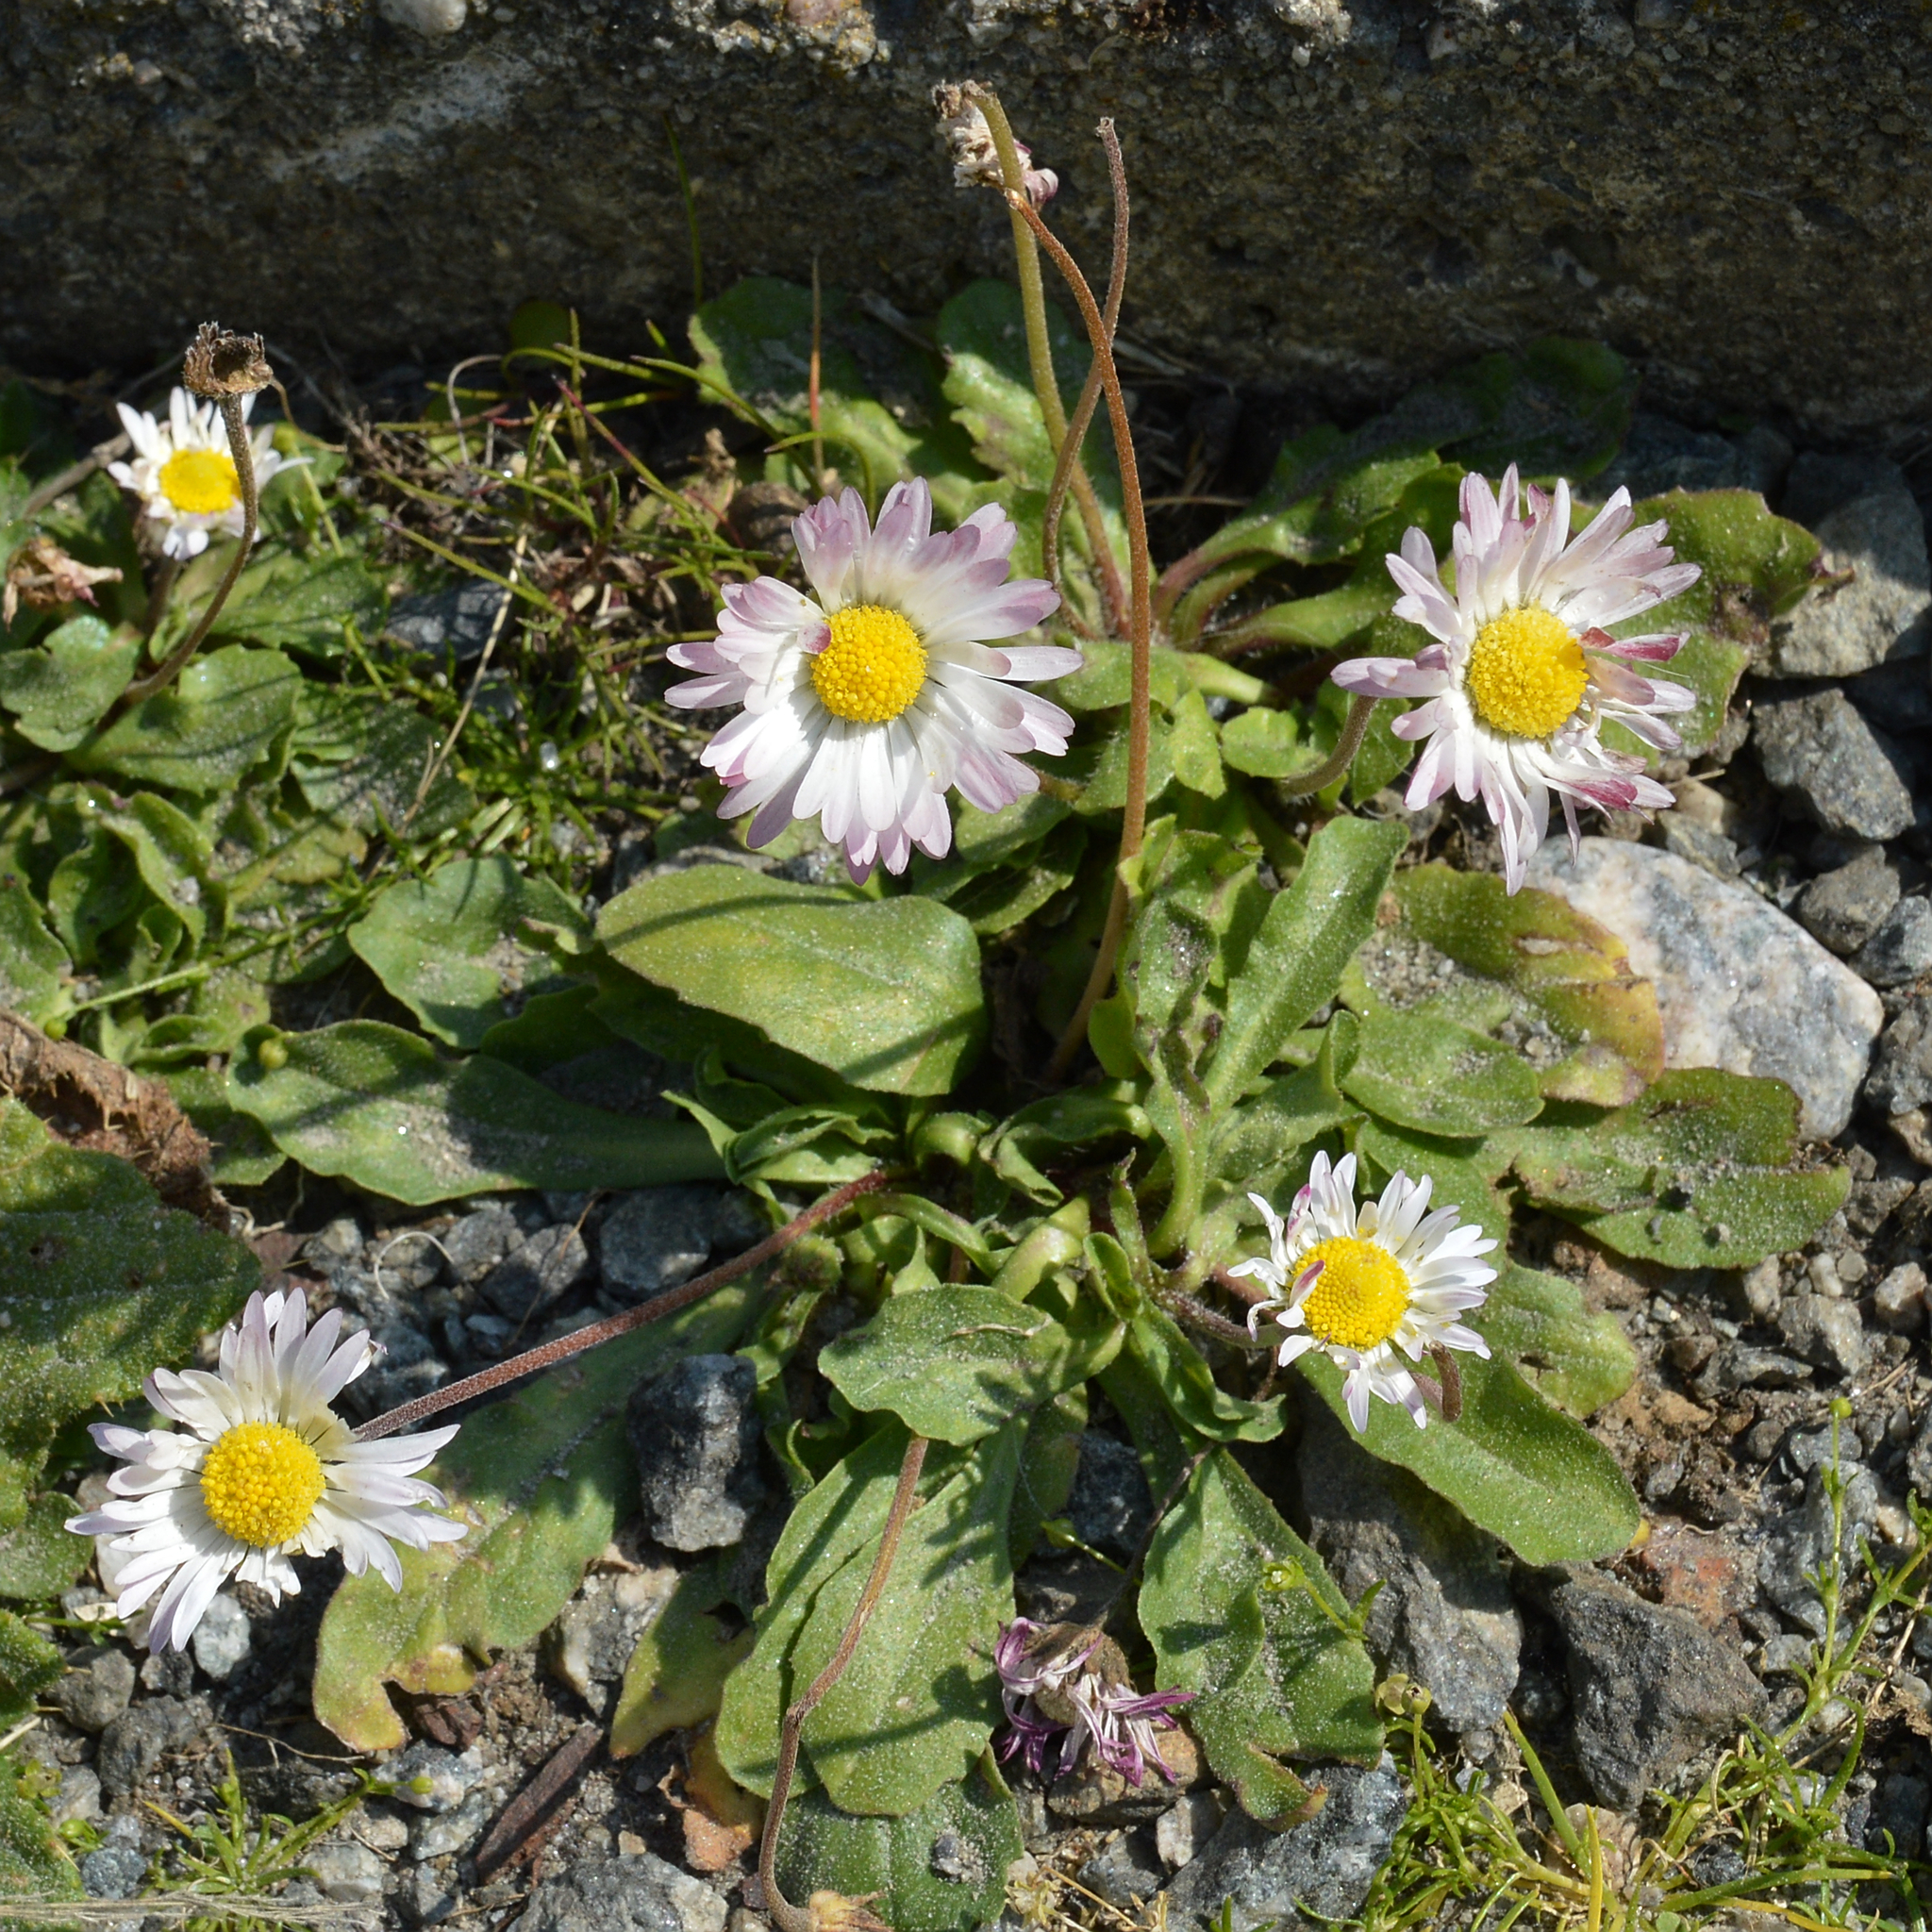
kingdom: Plantae
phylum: Tracheophyta
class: Magnoliopsida
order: Asterales
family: Asteraceae
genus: Bellis
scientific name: Bellis perennis
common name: Lawndaisy
